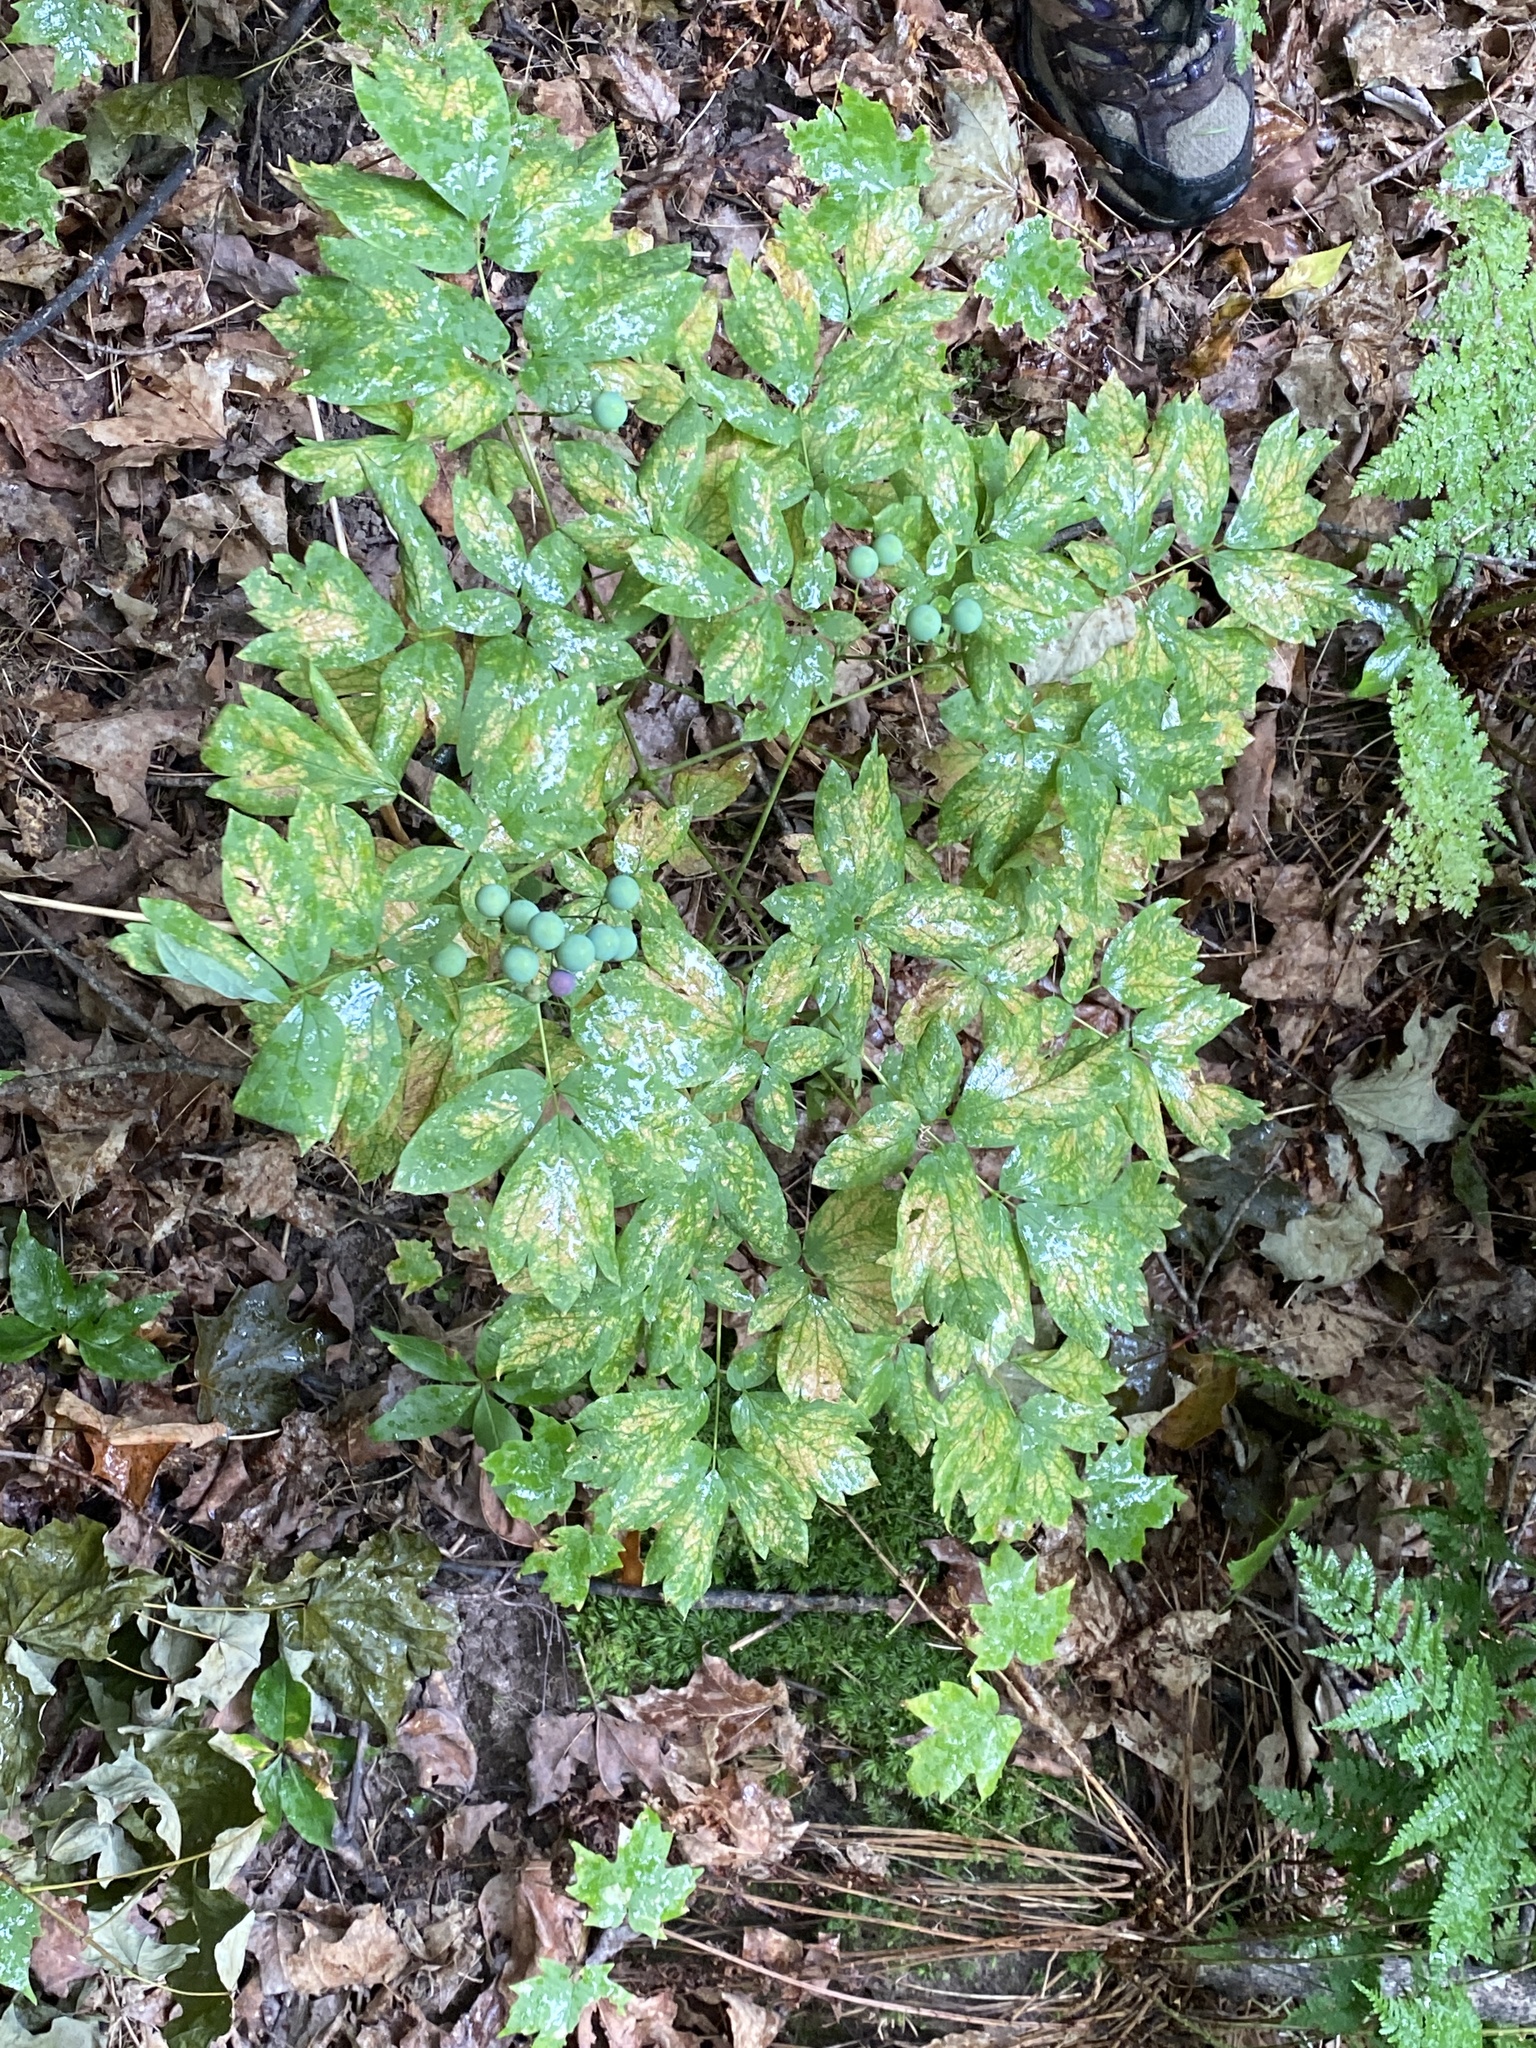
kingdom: Plantae
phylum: Tracheophyta
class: Magnoliopsida
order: Ranunculales
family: Berberidaceae
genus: Caulophyllum
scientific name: Caulophyllum thalictroides
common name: Blue cohosh
